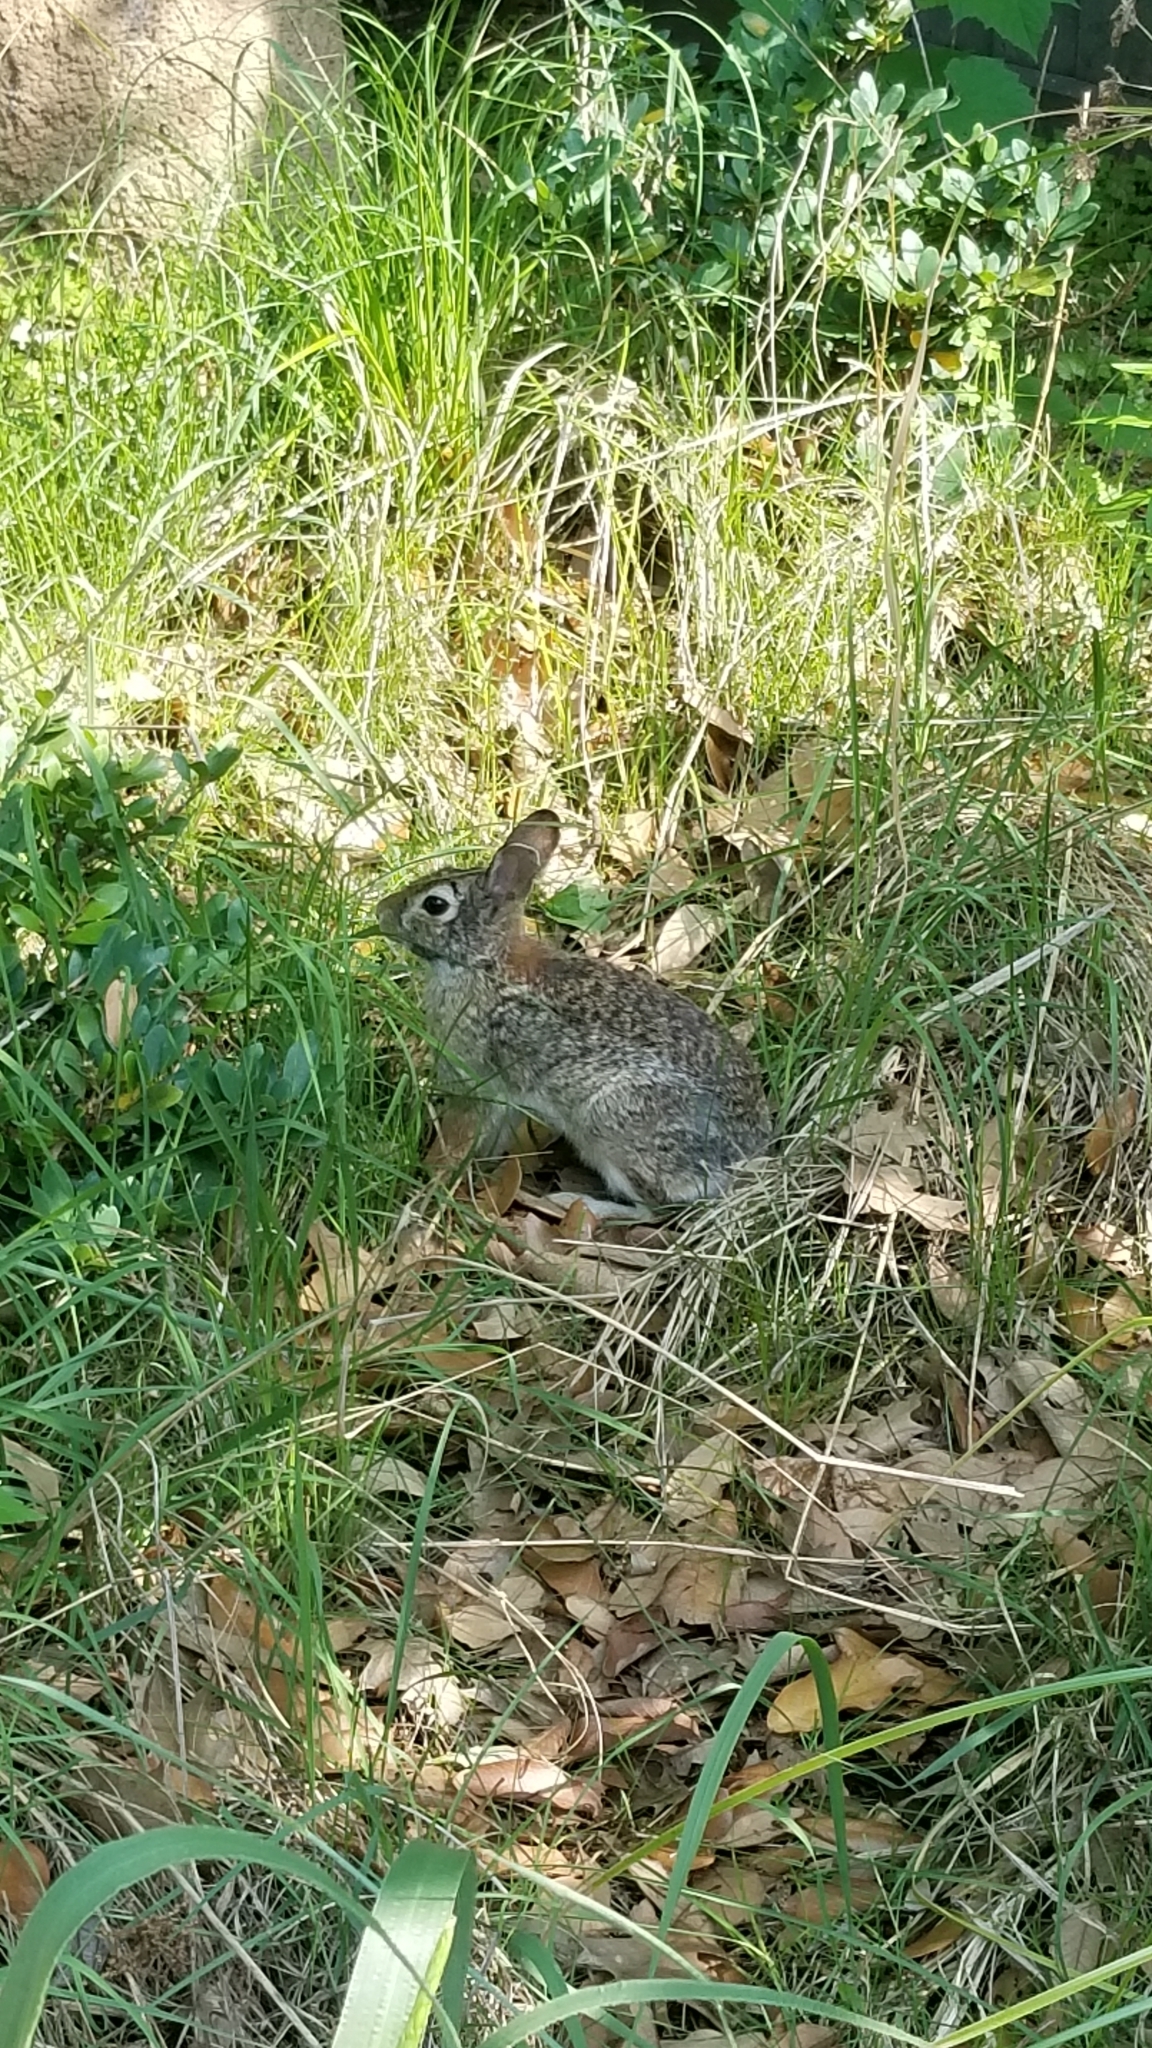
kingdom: Animalia
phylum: Chordata
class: Mammalia
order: Lagomorpha
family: Leporidae
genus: Sylvilagus
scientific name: Sylvilagus floridanus
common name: Eastern cottontail
